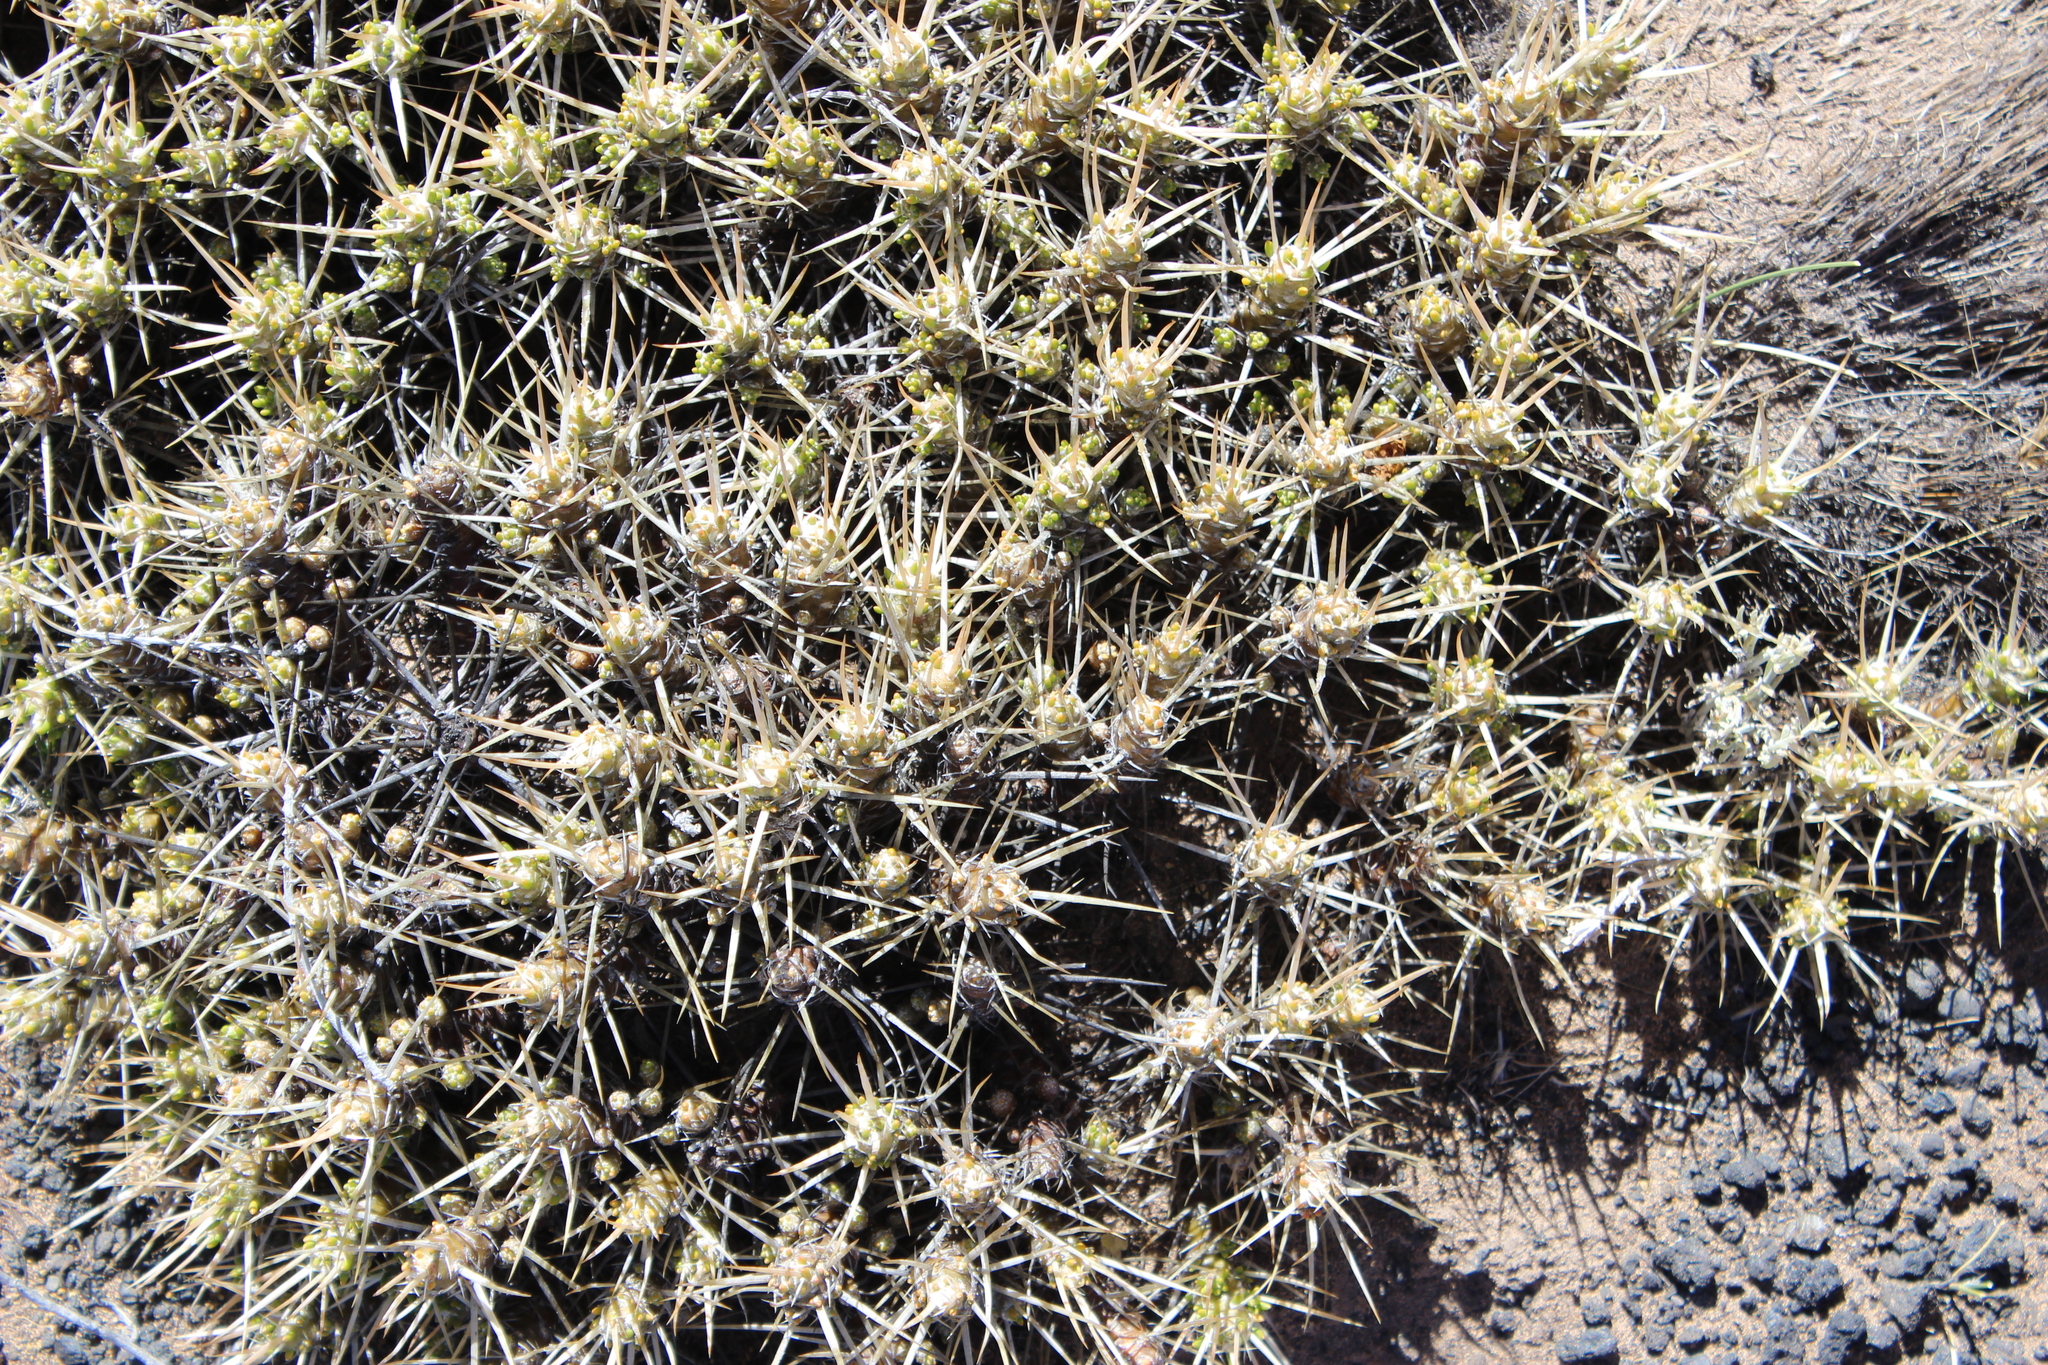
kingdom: Plantae
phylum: Tracheophyta
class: Magnoliopsida
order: Caryophyllales
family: Cactaceae
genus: Maihuenia
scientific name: Maihuenia patagonica
